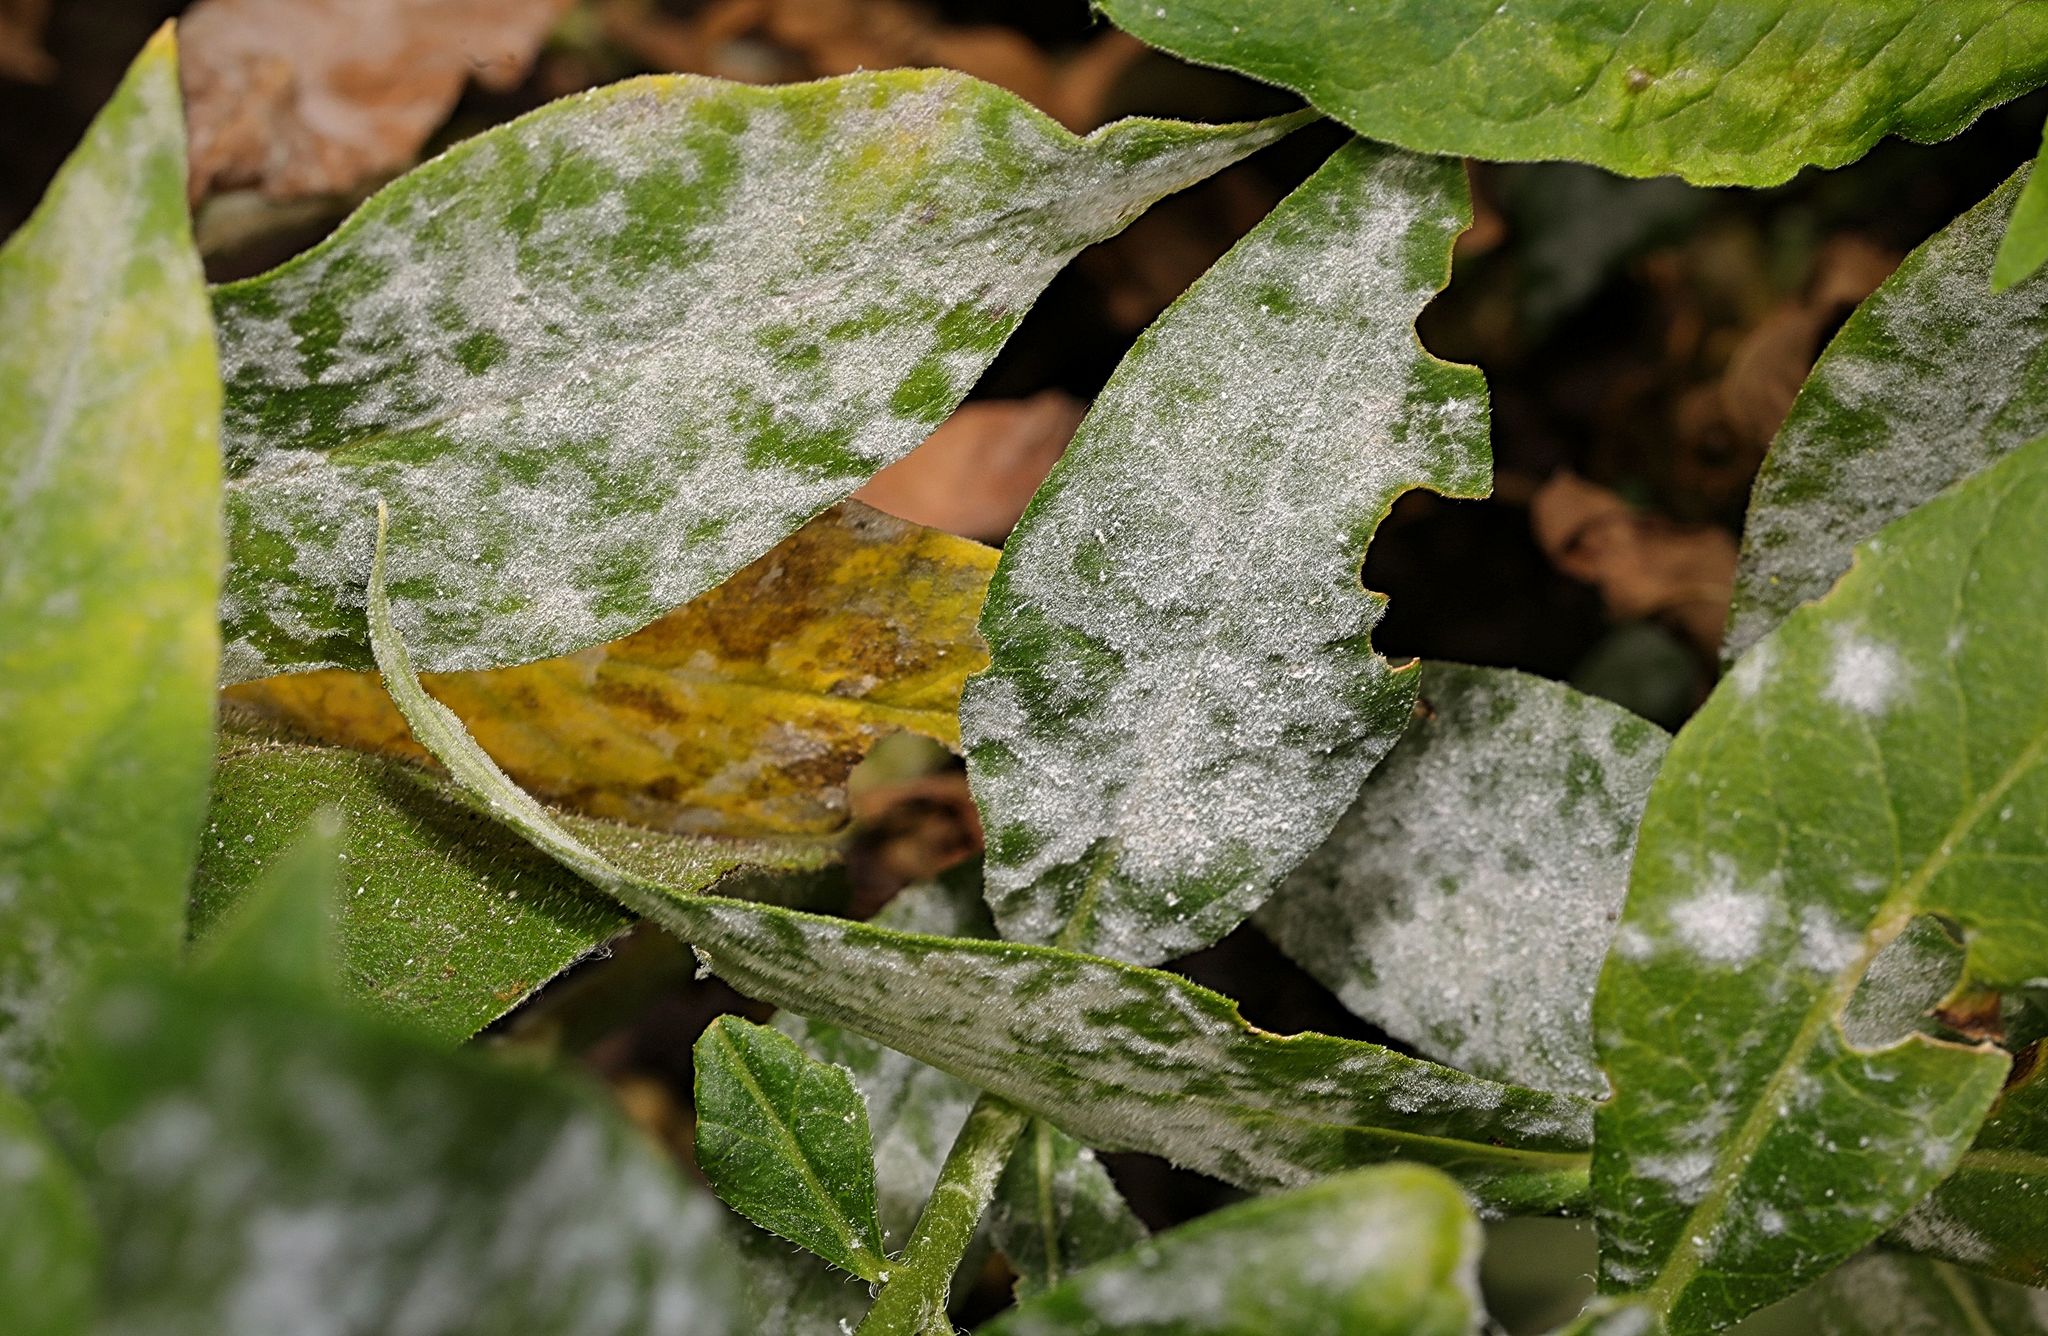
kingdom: Fungi
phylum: Ascomycota
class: Leotiomycetes
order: Helotiales
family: Erysiphaceae
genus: Golovinomyces
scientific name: Golovinomyces magnicellulatus
